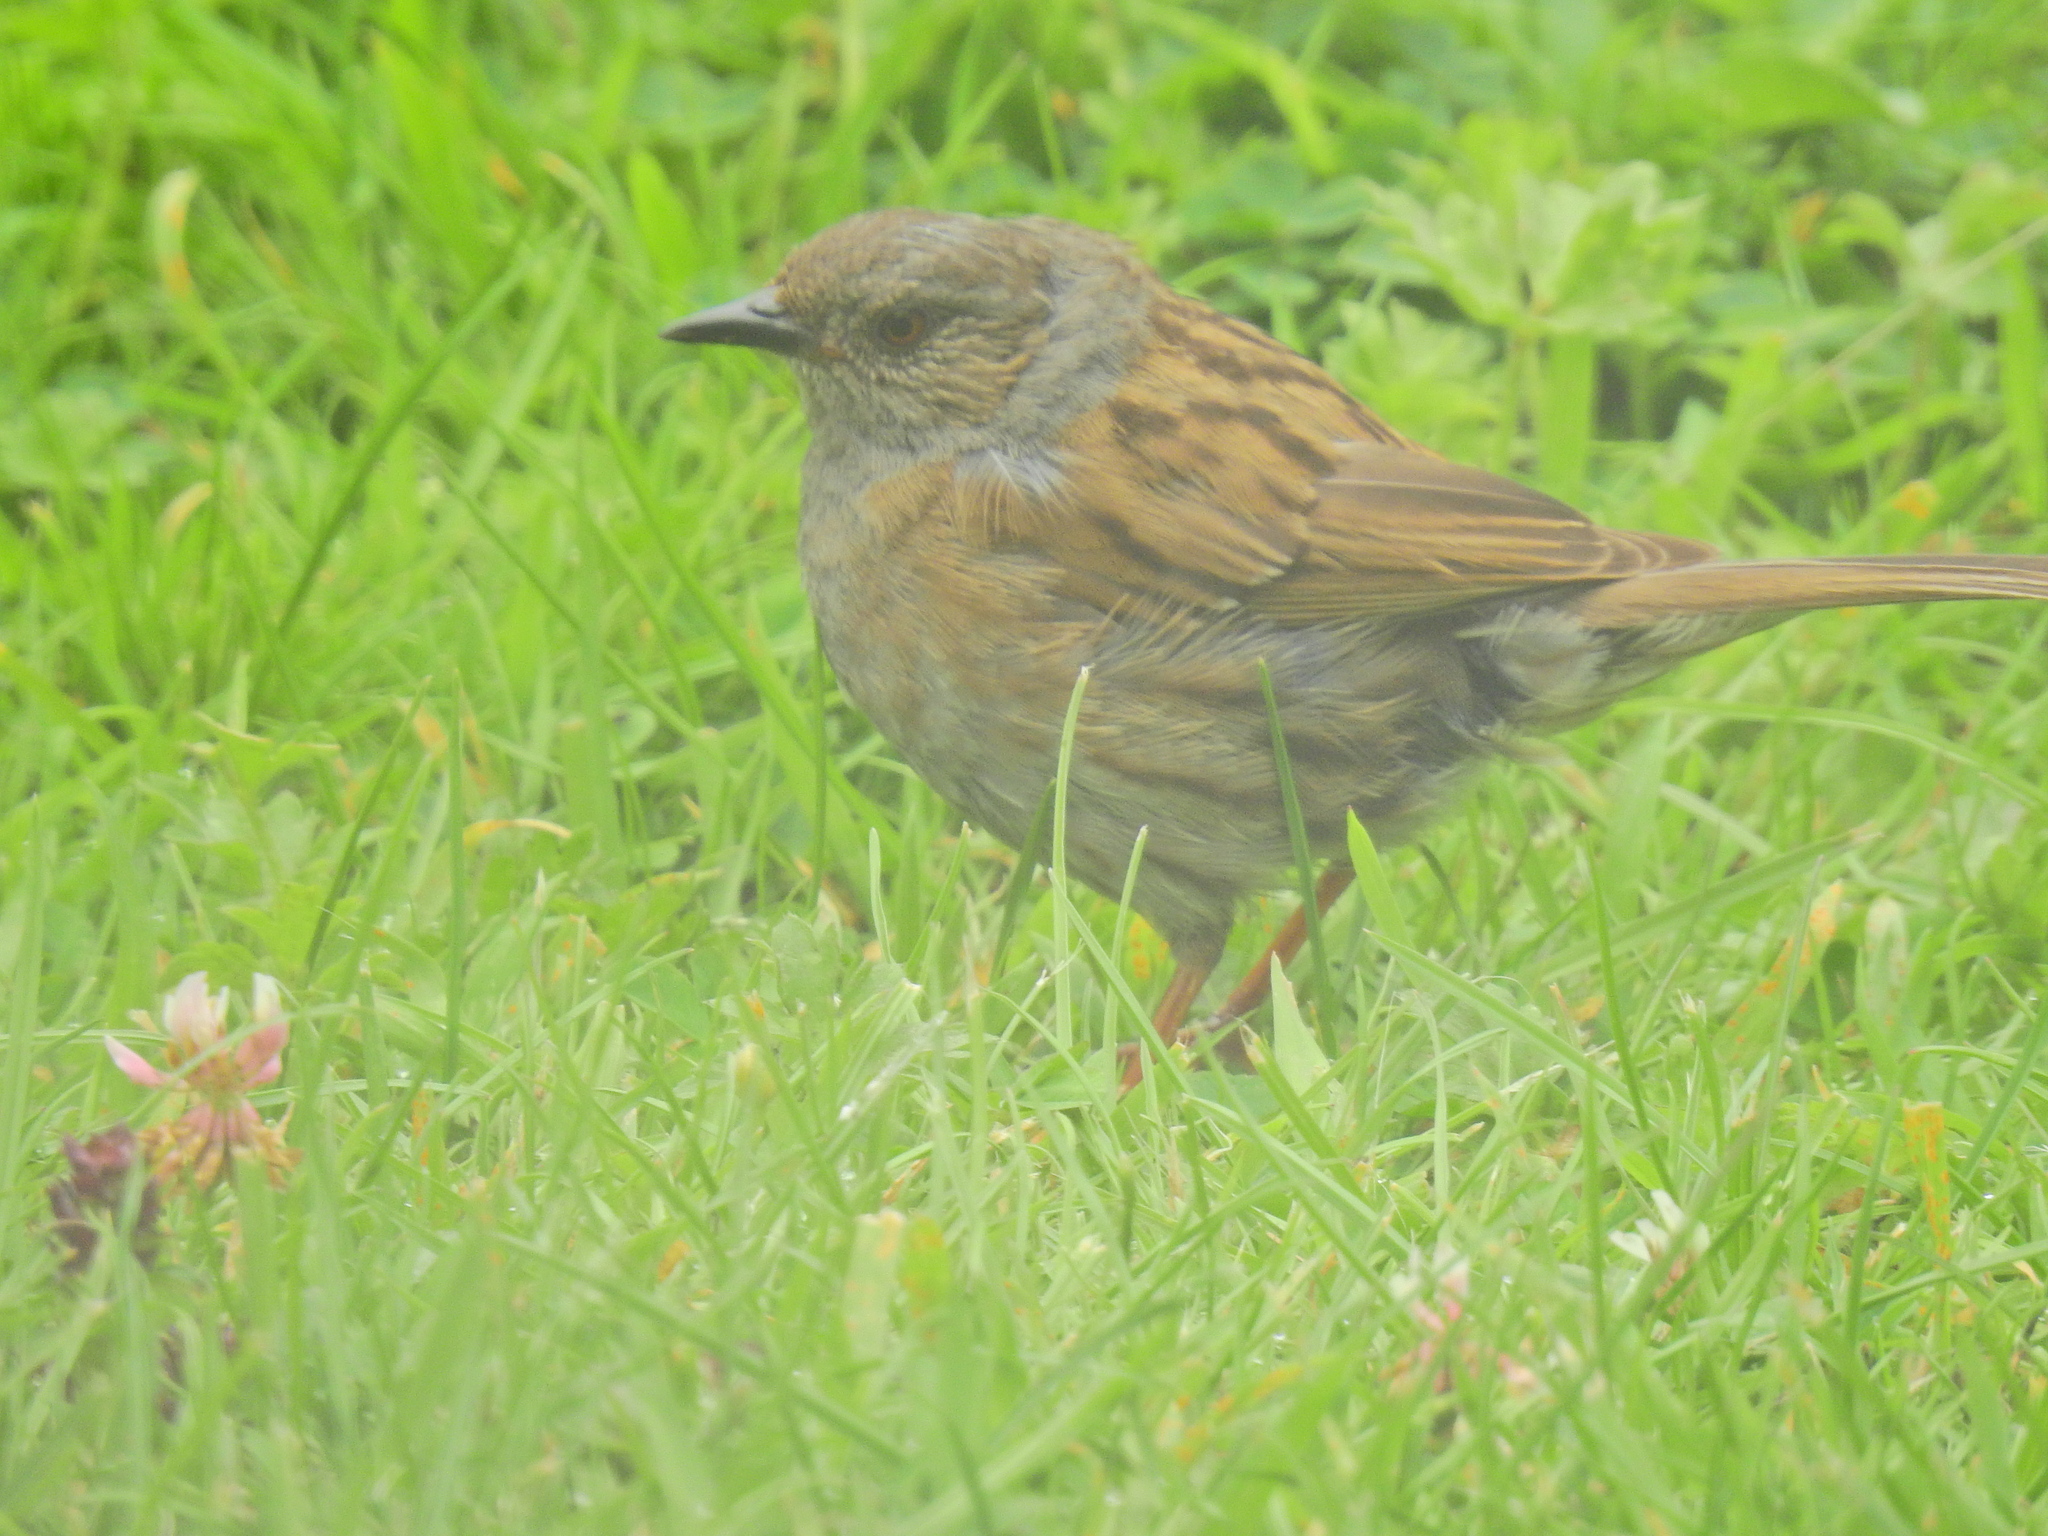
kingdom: Animalia
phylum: Chordata
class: Aves
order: Passeriformes
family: Prunellidae
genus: Prunella
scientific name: Prunella modularis
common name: Dunnock
